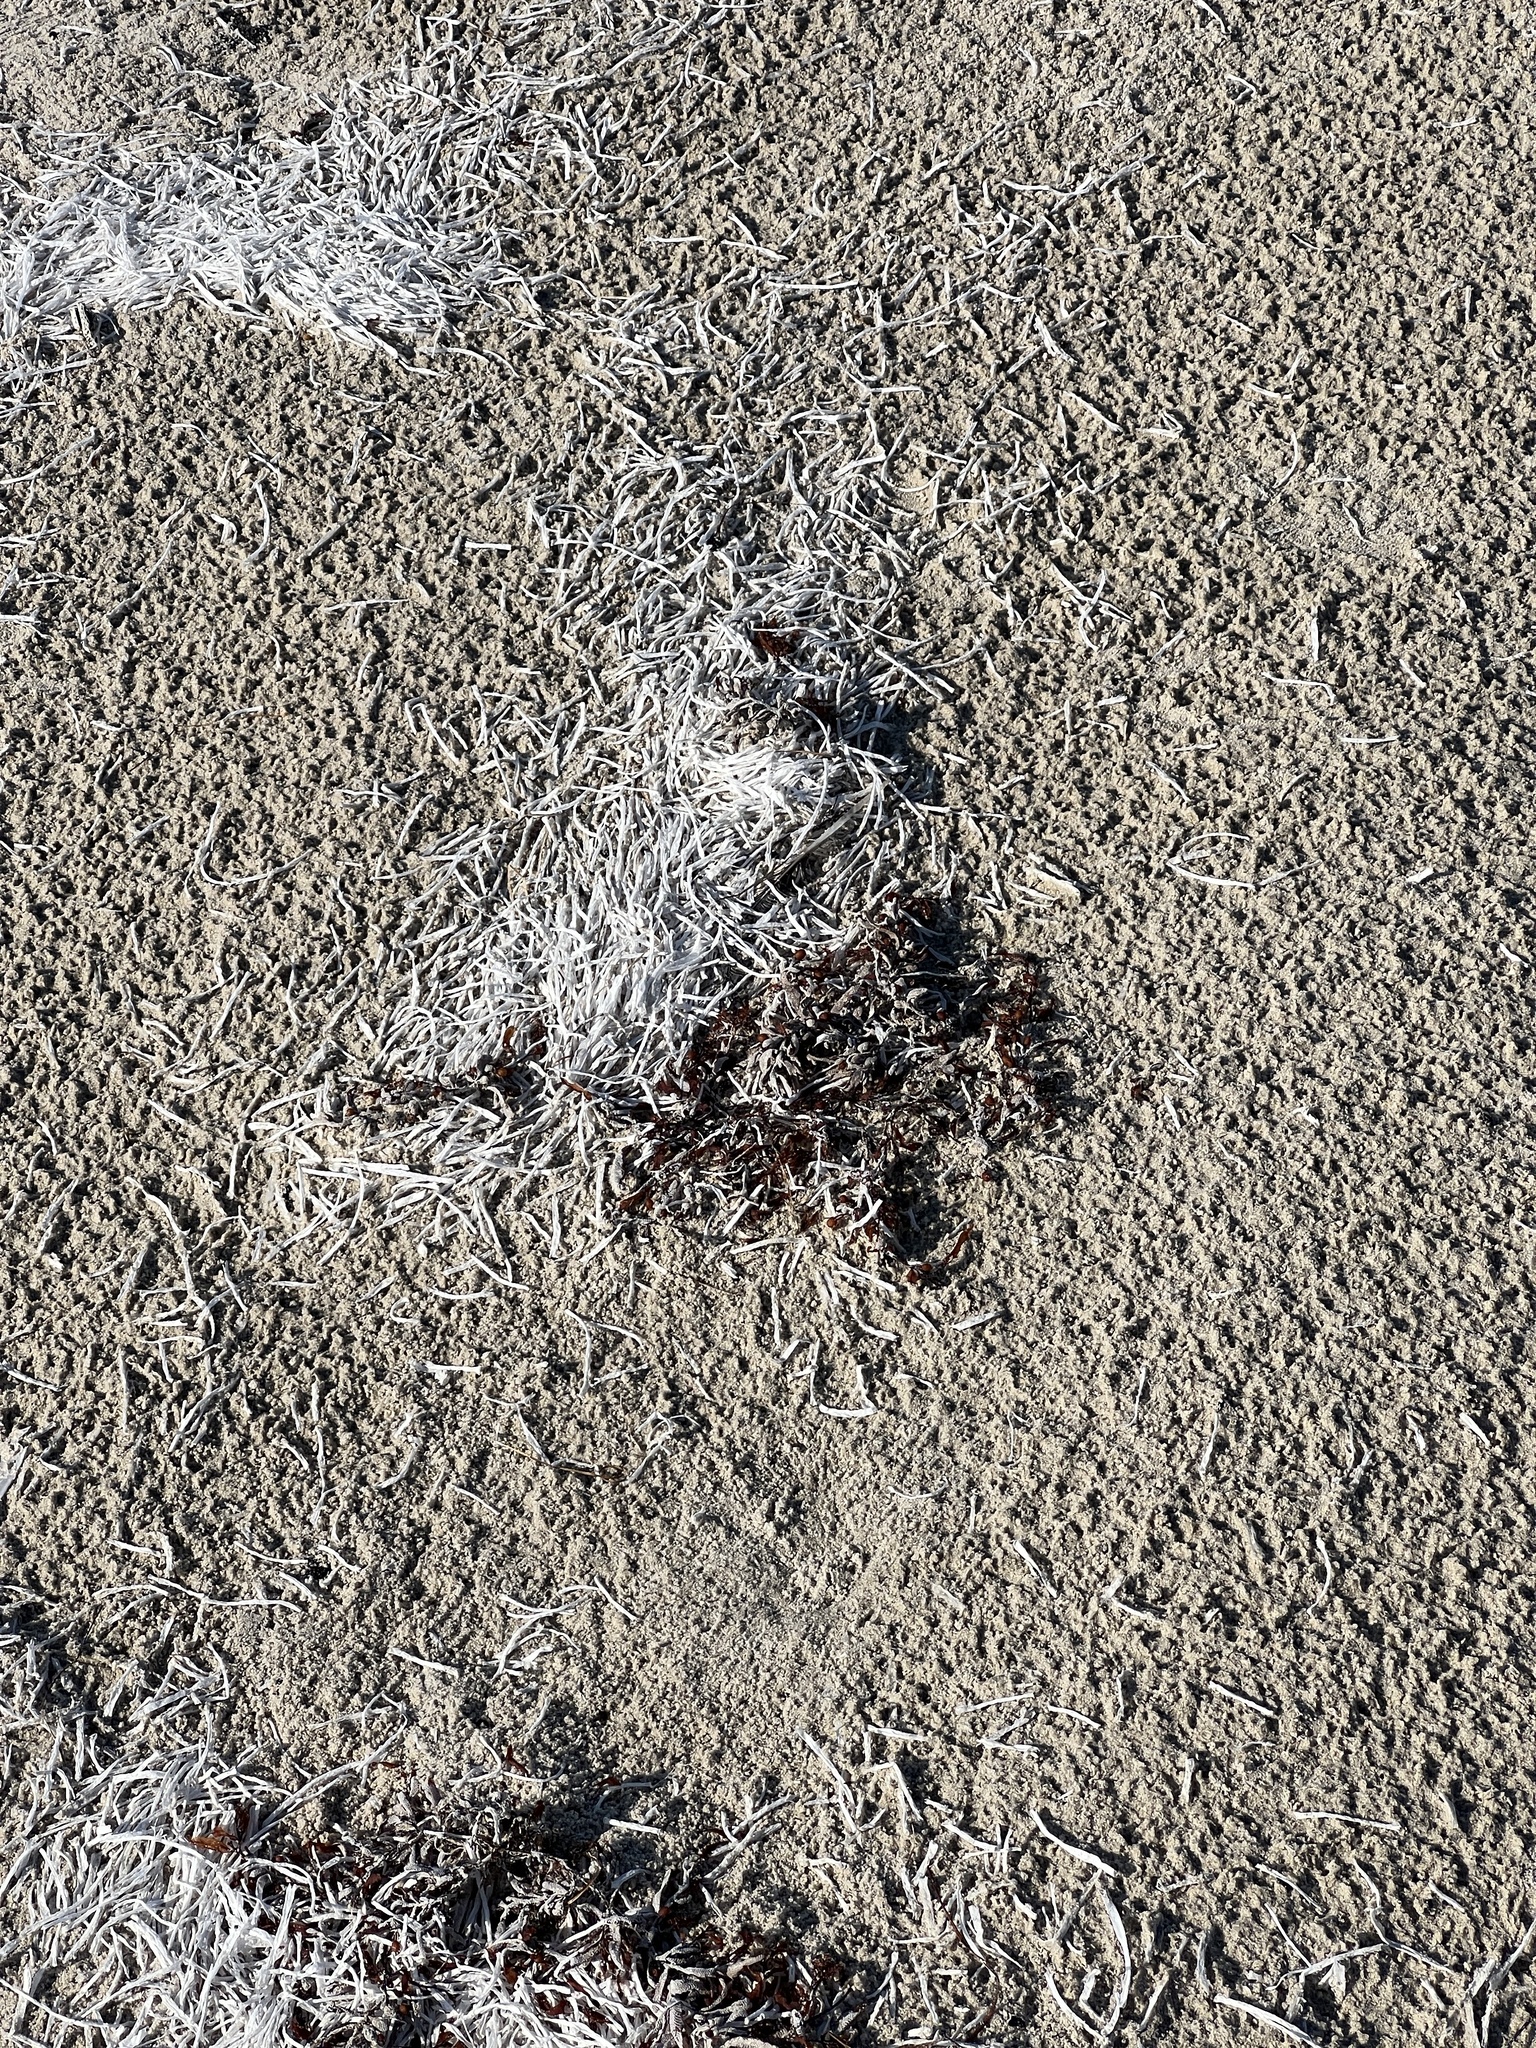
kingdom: Plantae
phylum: Tracheophyta
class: Liliopsida
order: Alismatales
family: Cymodoceaceae
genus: Syringodium
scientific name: Syringodium filiforme
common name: Manatee grass
